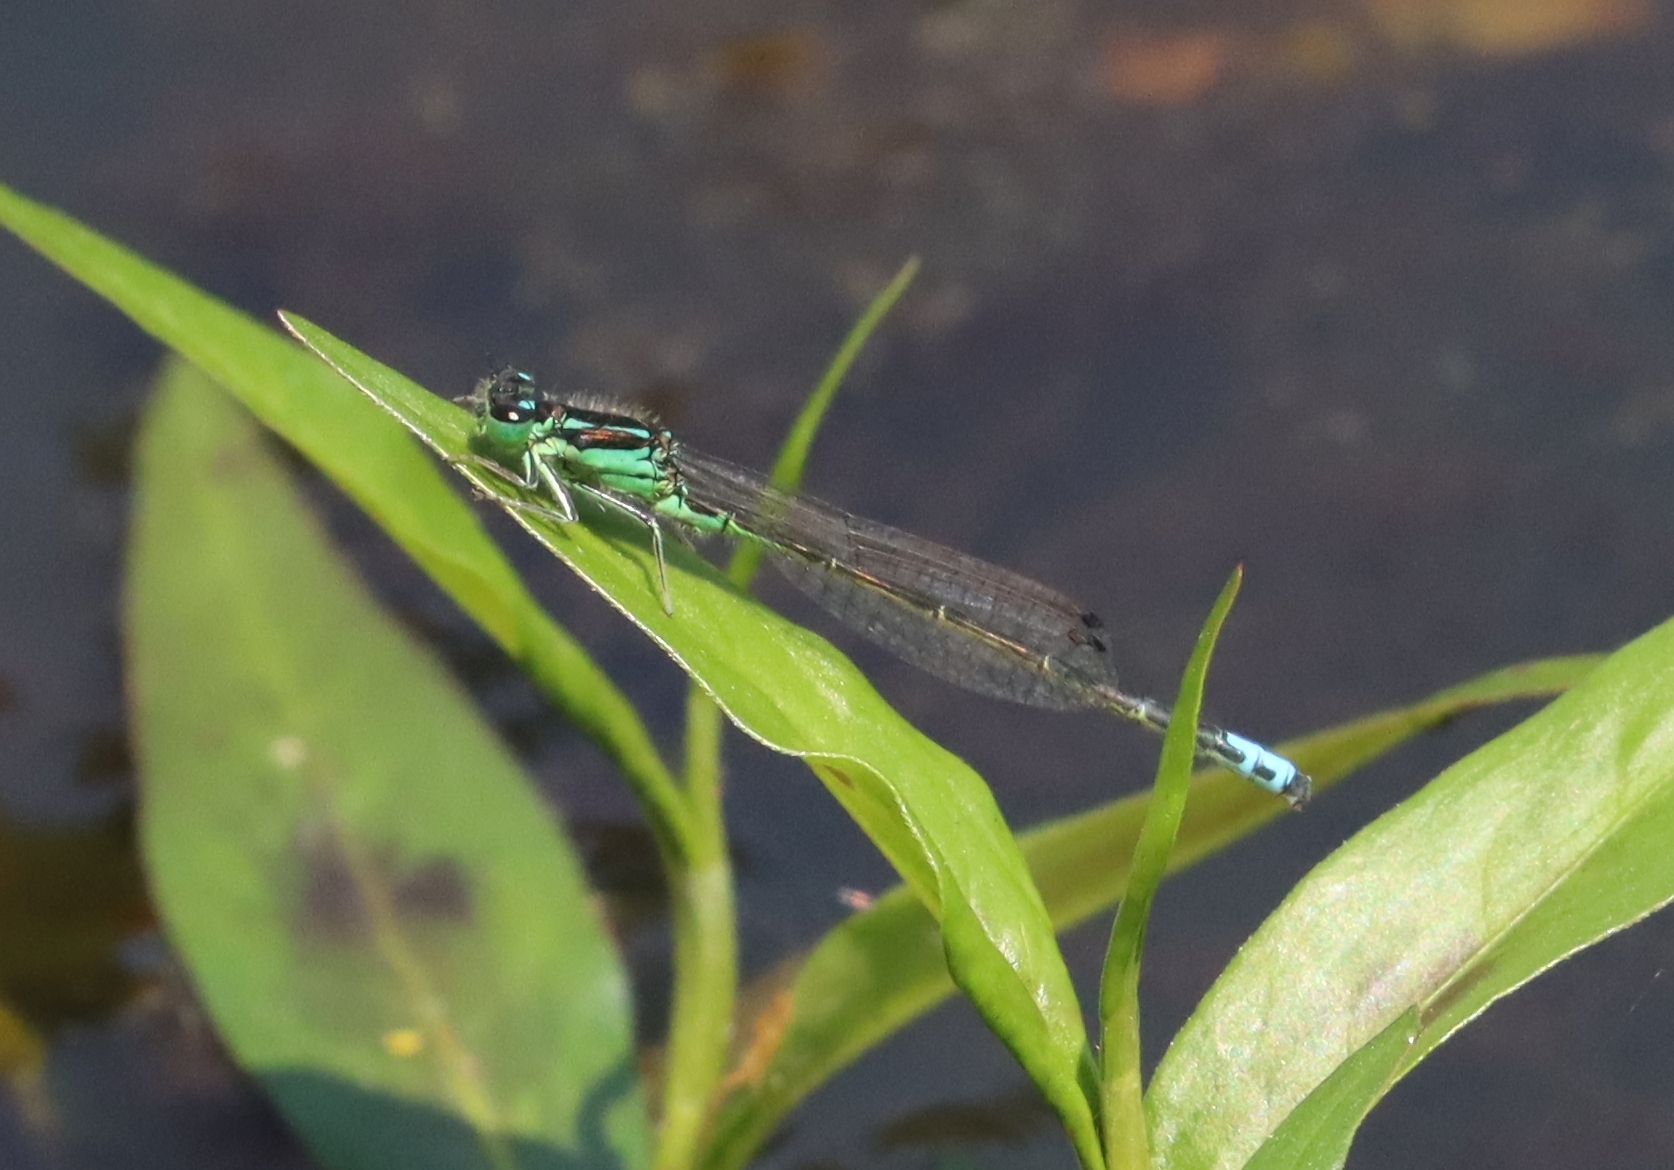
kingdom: Animalia
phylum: Arthropoda
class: Insecta
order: Odonata
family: Coenagrionidae
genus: Ischnura
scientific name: Ischnura verticalis
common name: Eastern forktail
